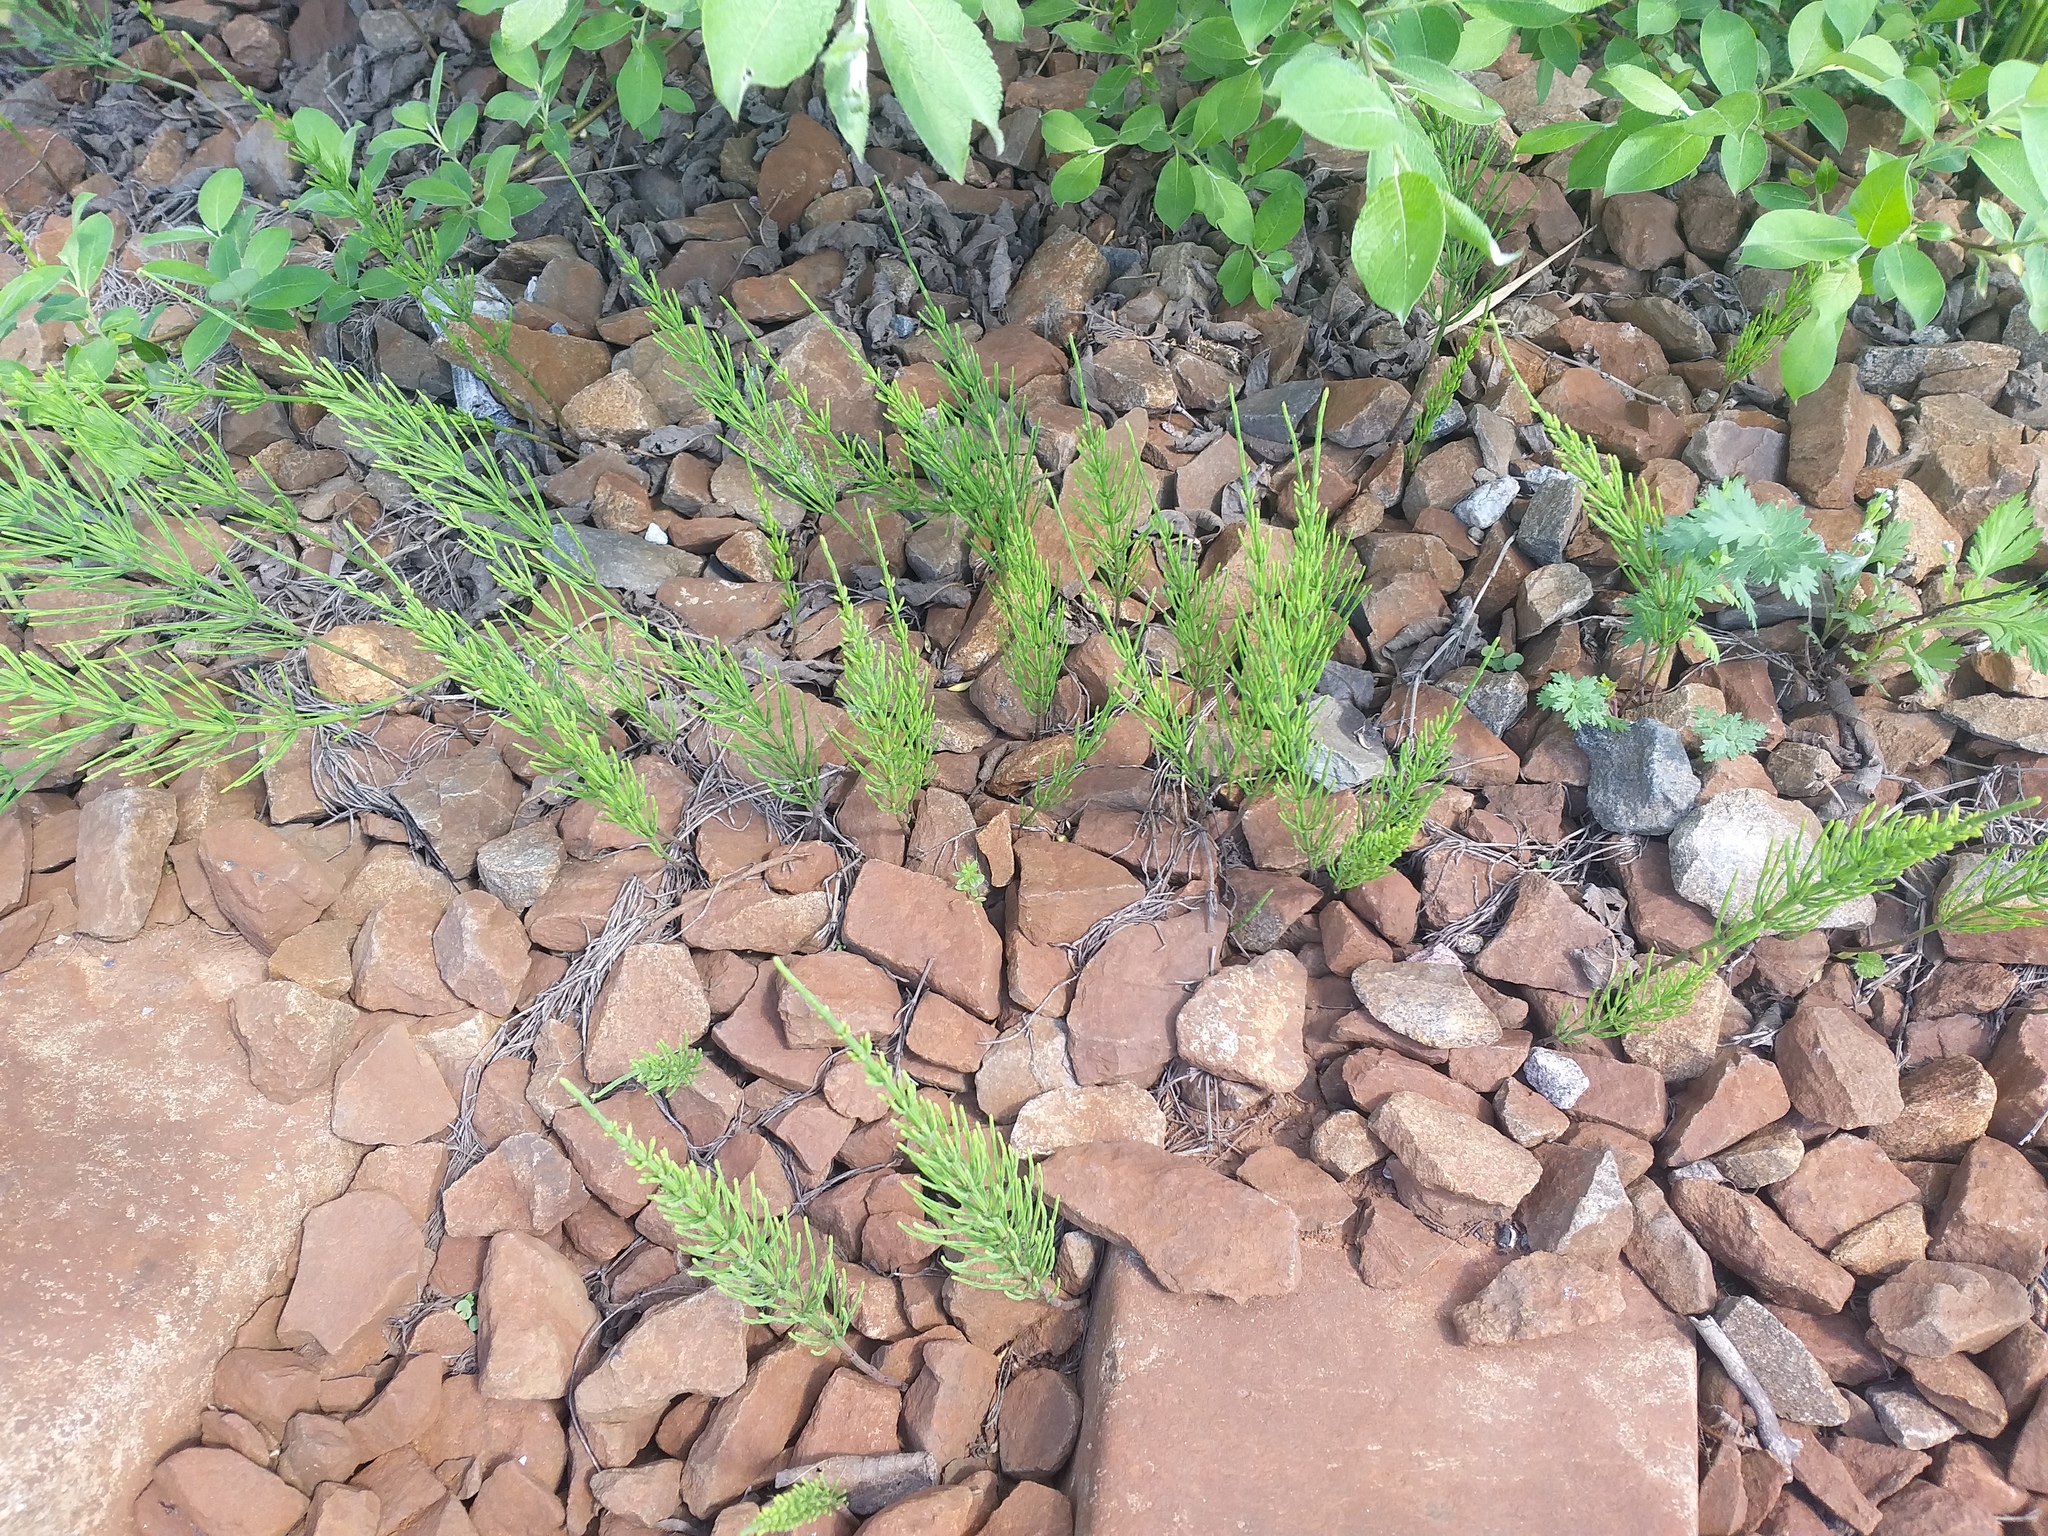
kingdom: Plantae
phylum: Tracheophyta
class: Polypodiopsida
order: Equisetales
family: Equisetaceae
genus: Equisetum
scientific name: Equisetum arvense
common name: Field horsetail
